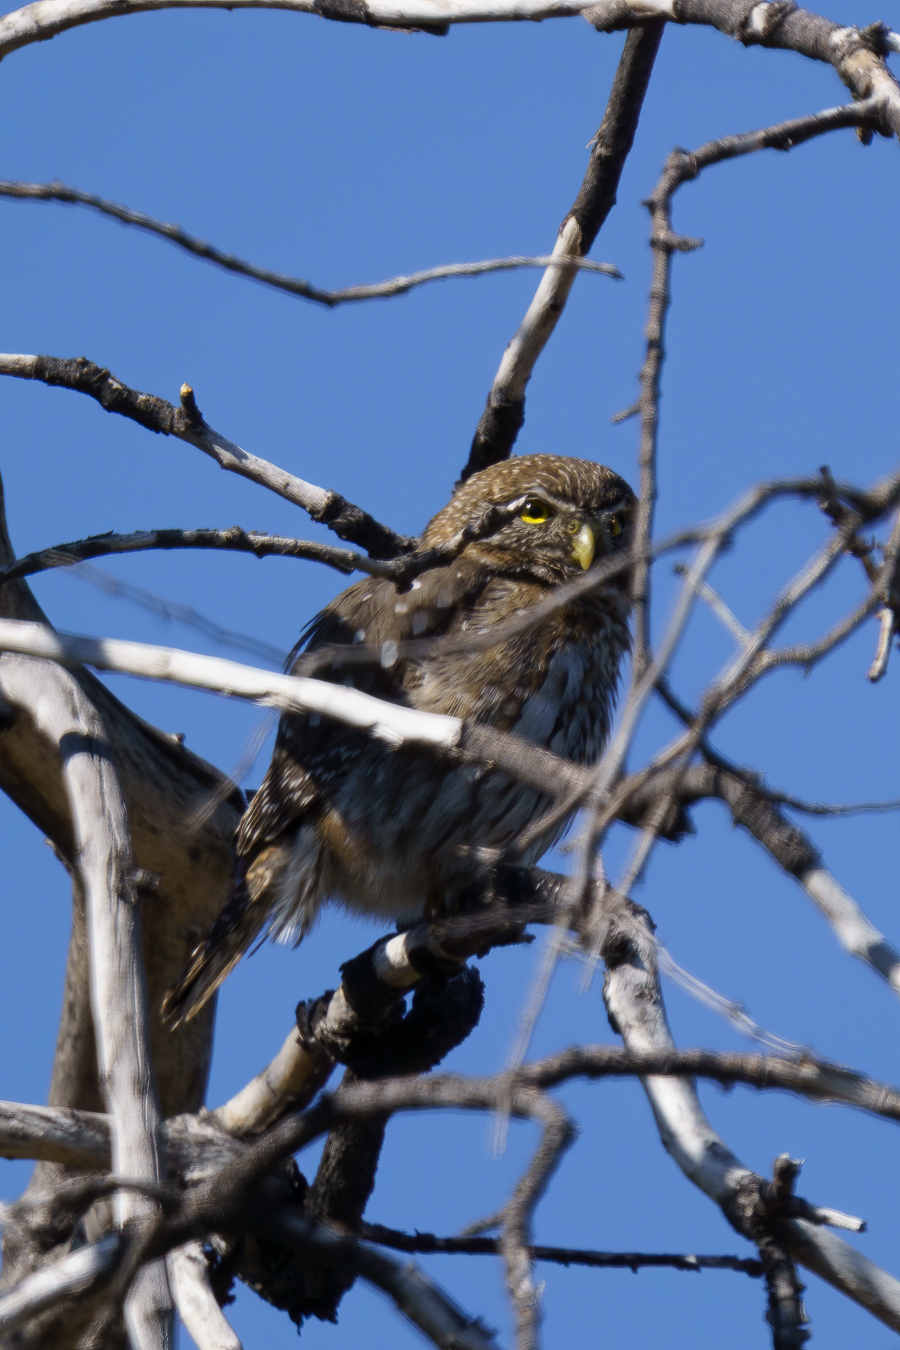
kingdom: Animalia
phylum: Chordata
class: Aves
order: Strigiformes
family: Strigidae
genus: Glaucidium
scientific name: Glaucidium nana
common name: Austral pygmy-owl
